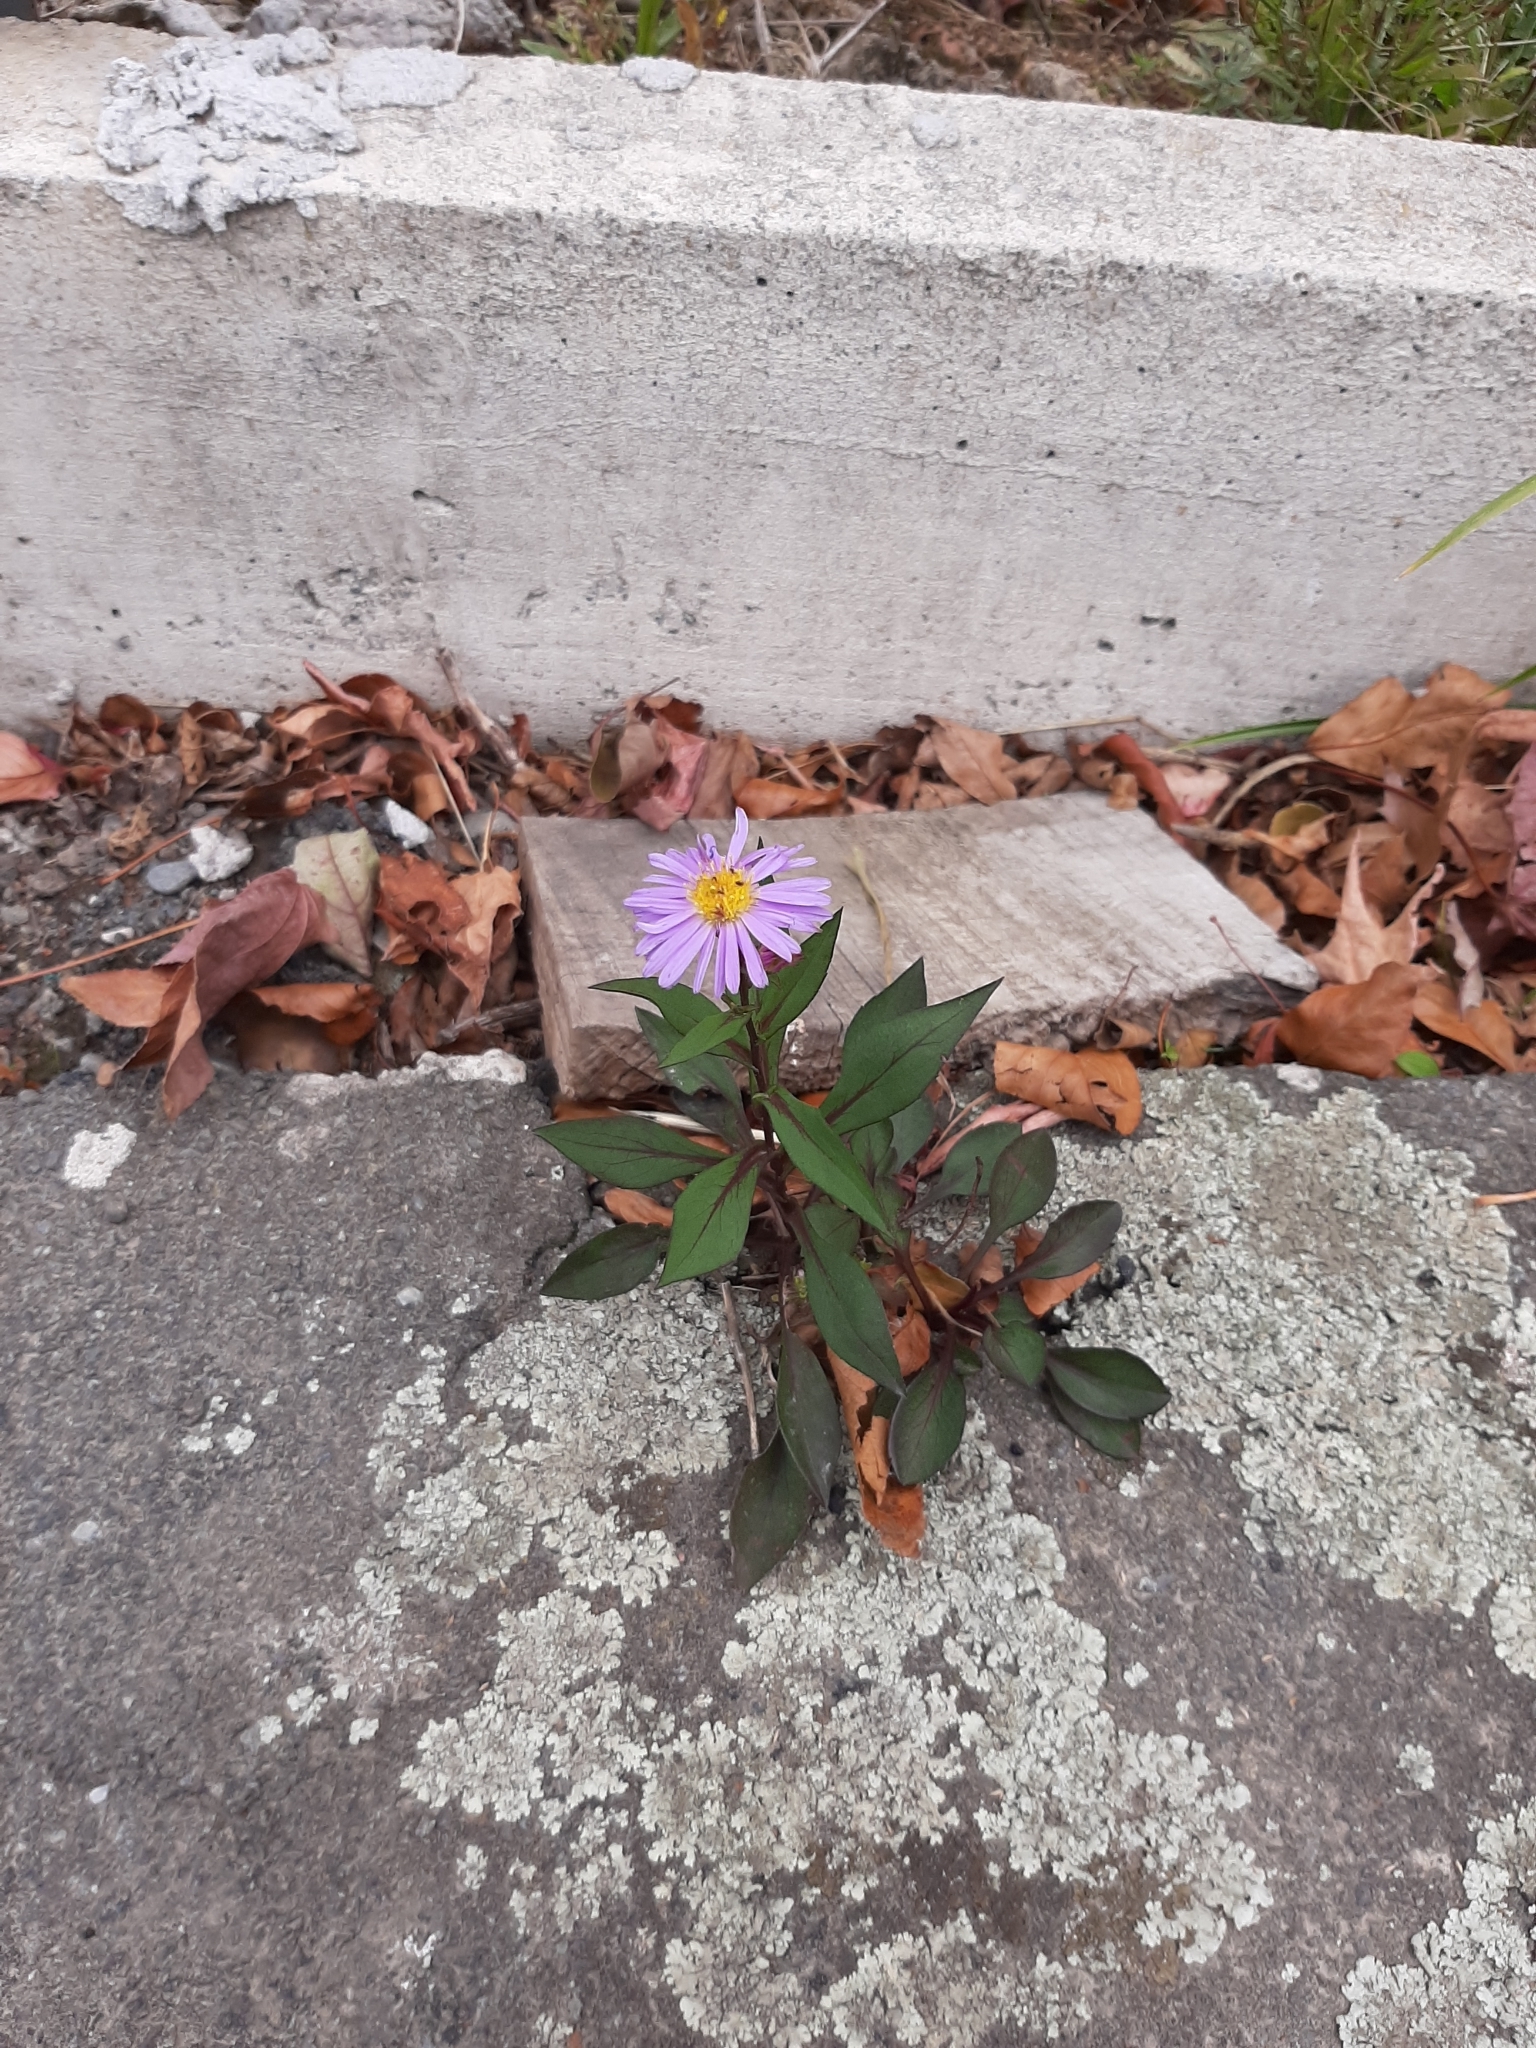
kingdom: Plantae
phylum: Tracheophyta
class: Magnoliopsida
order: Asterales
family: Asteraceae
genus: Symphyotrichum
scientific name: Symphyotrichum novi-belgii
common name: Michaelmas daisy
